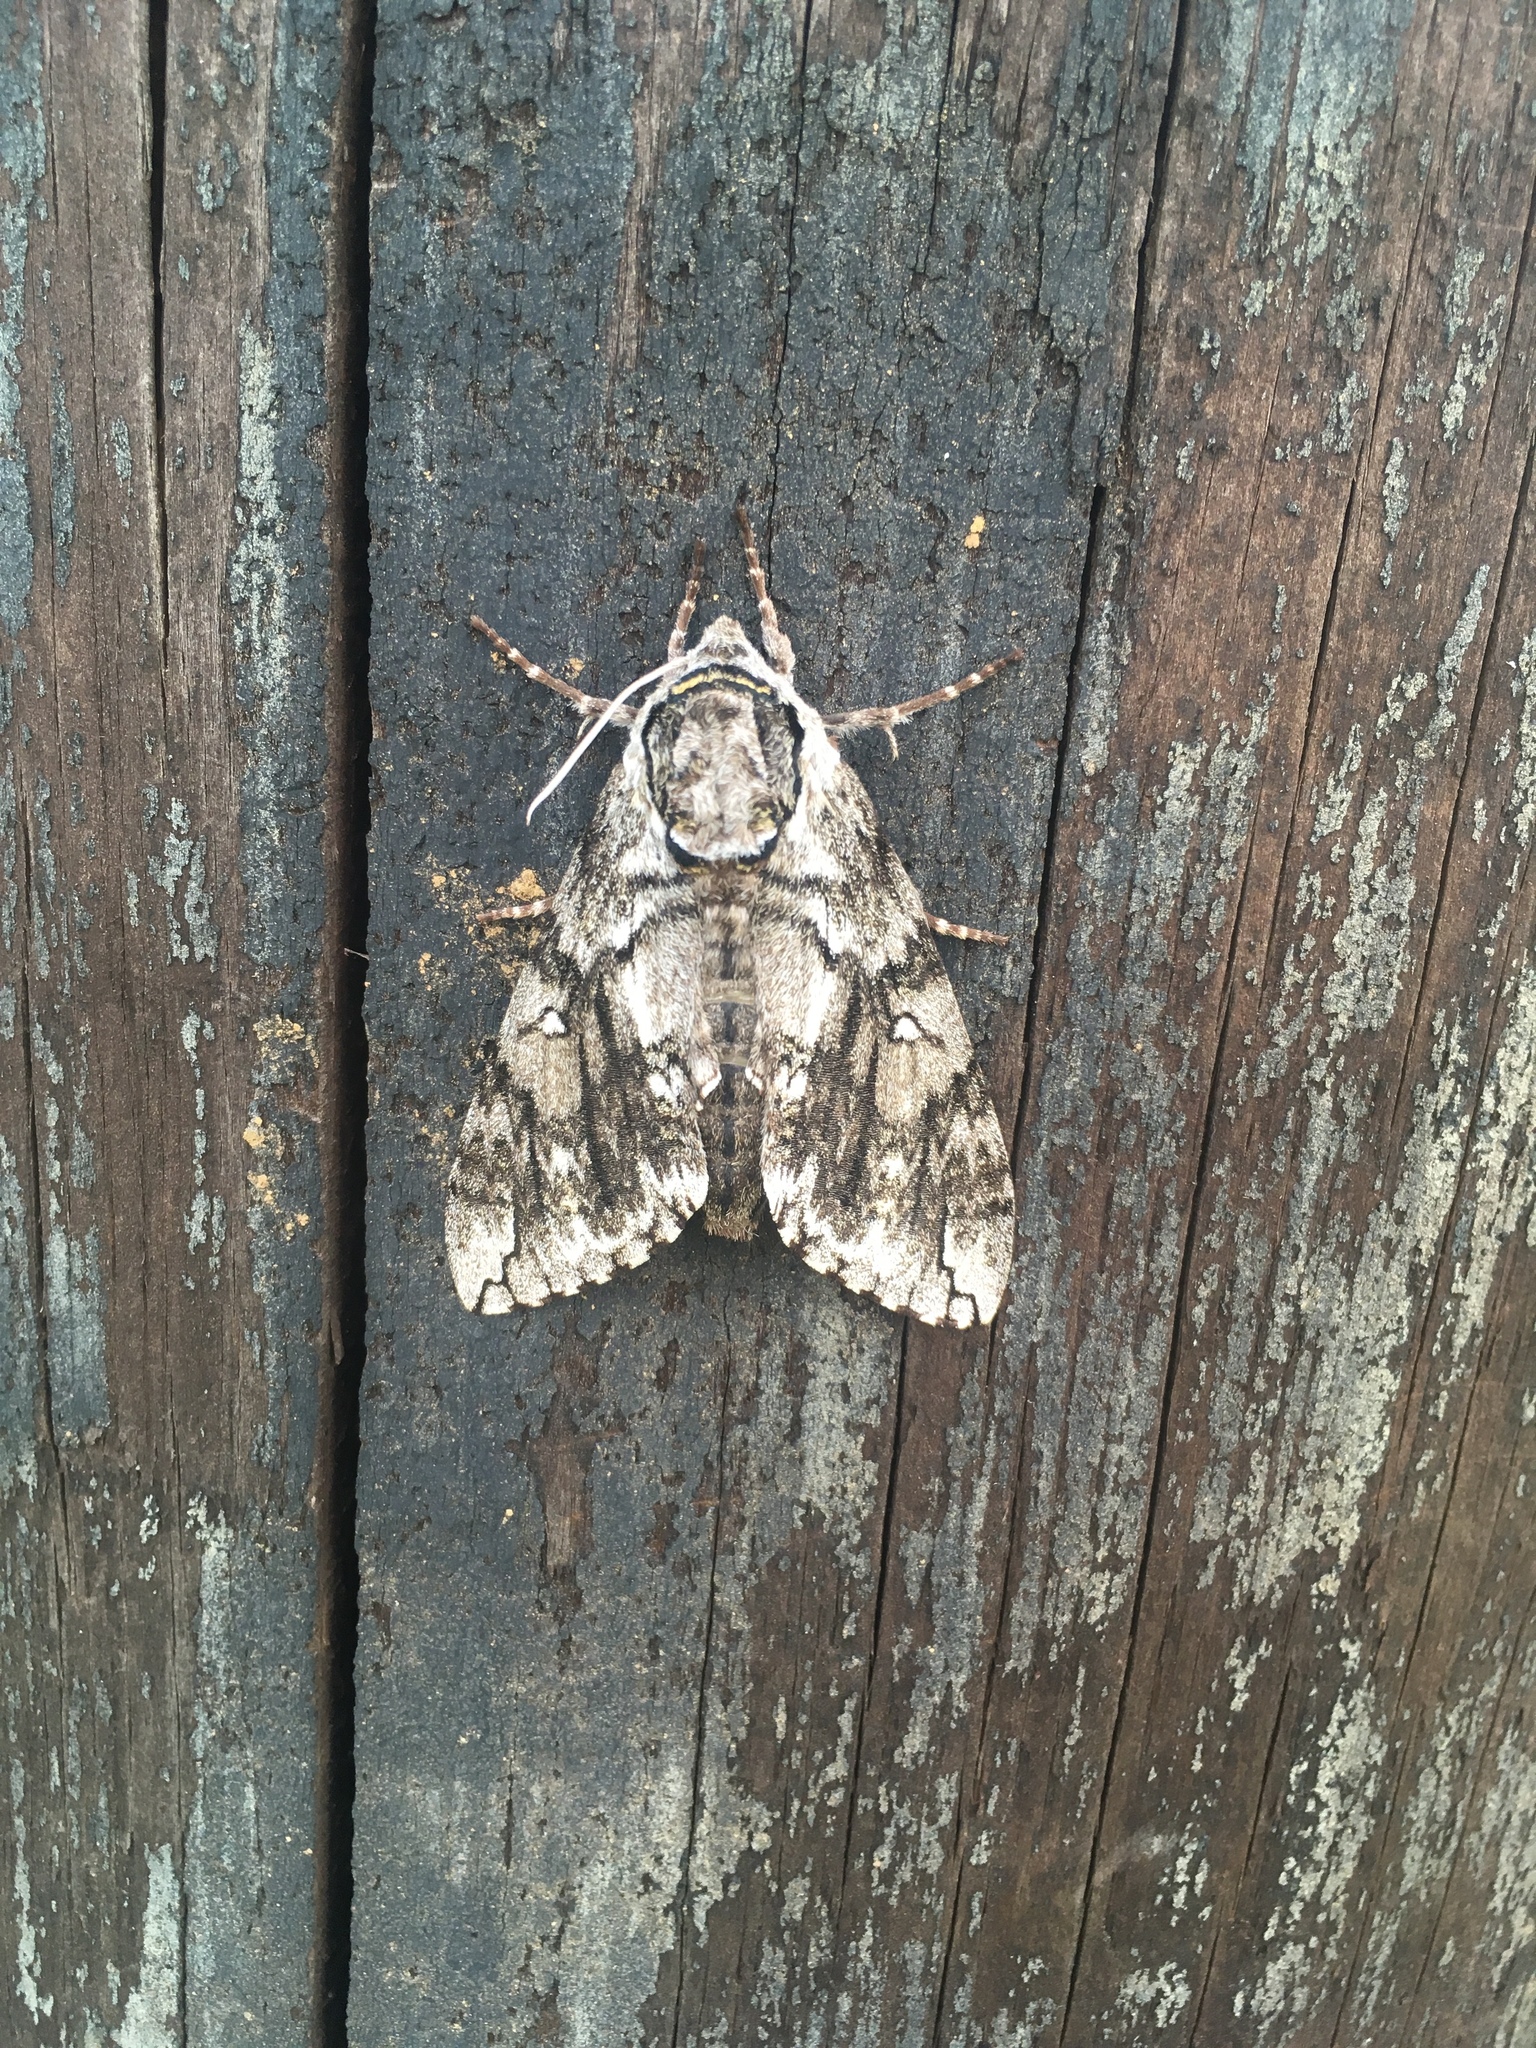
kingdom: Animalia
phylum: Arthropoda
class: Insecta
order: Lepidoptera
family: Sphingidae
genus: Ceratomia
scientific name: Ceratomia undulosa
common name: Waved sphinx
